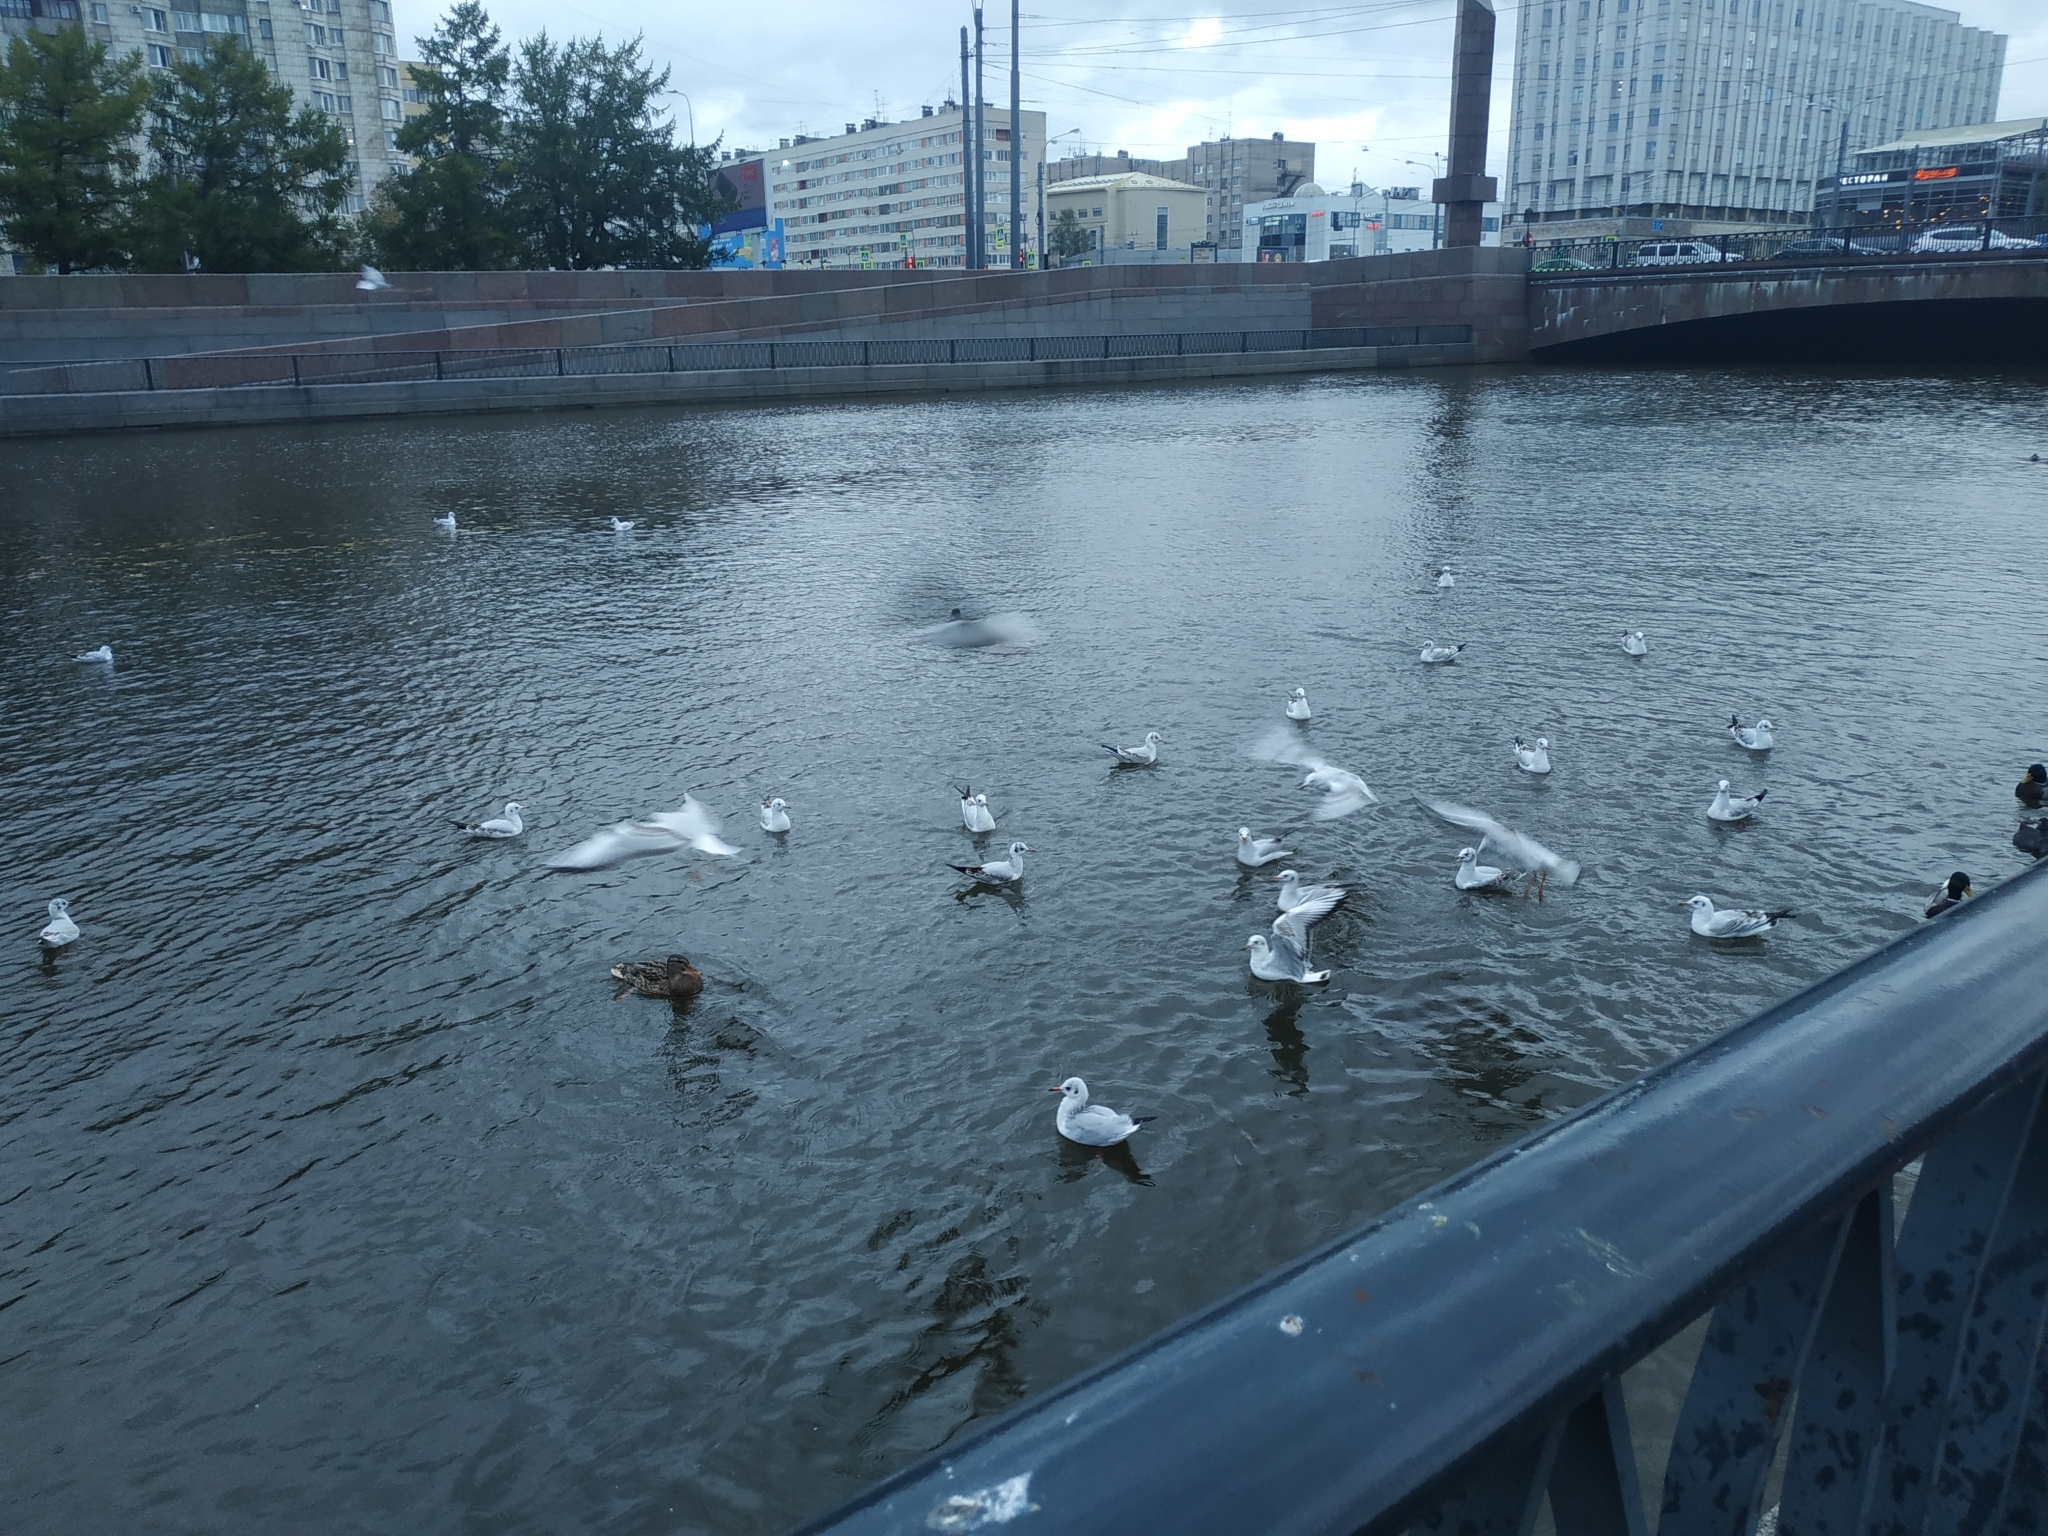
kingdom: Animalia
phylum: Chordata
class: Aves
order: Charadriiformes
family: Laridae
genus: Chroicocephalus
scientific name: Chroicocephalus ridibundus
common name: Black-headed gull
